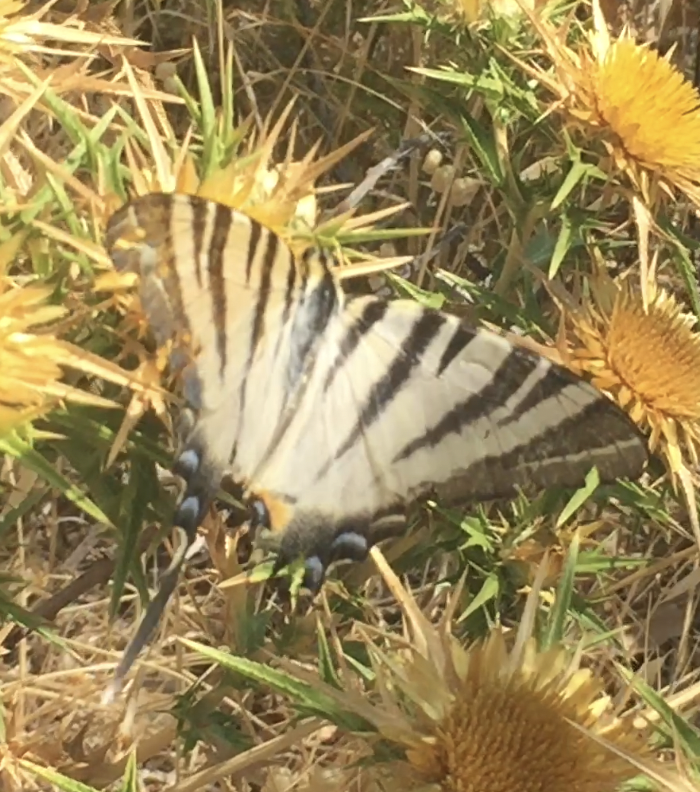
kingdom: Animalia
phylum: Arthropoda
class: Insecta
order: Lepidoptera
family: Papilionidae
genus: Iphiclides
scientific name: Iphiclides podalirius
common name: Scarce swallowtail
